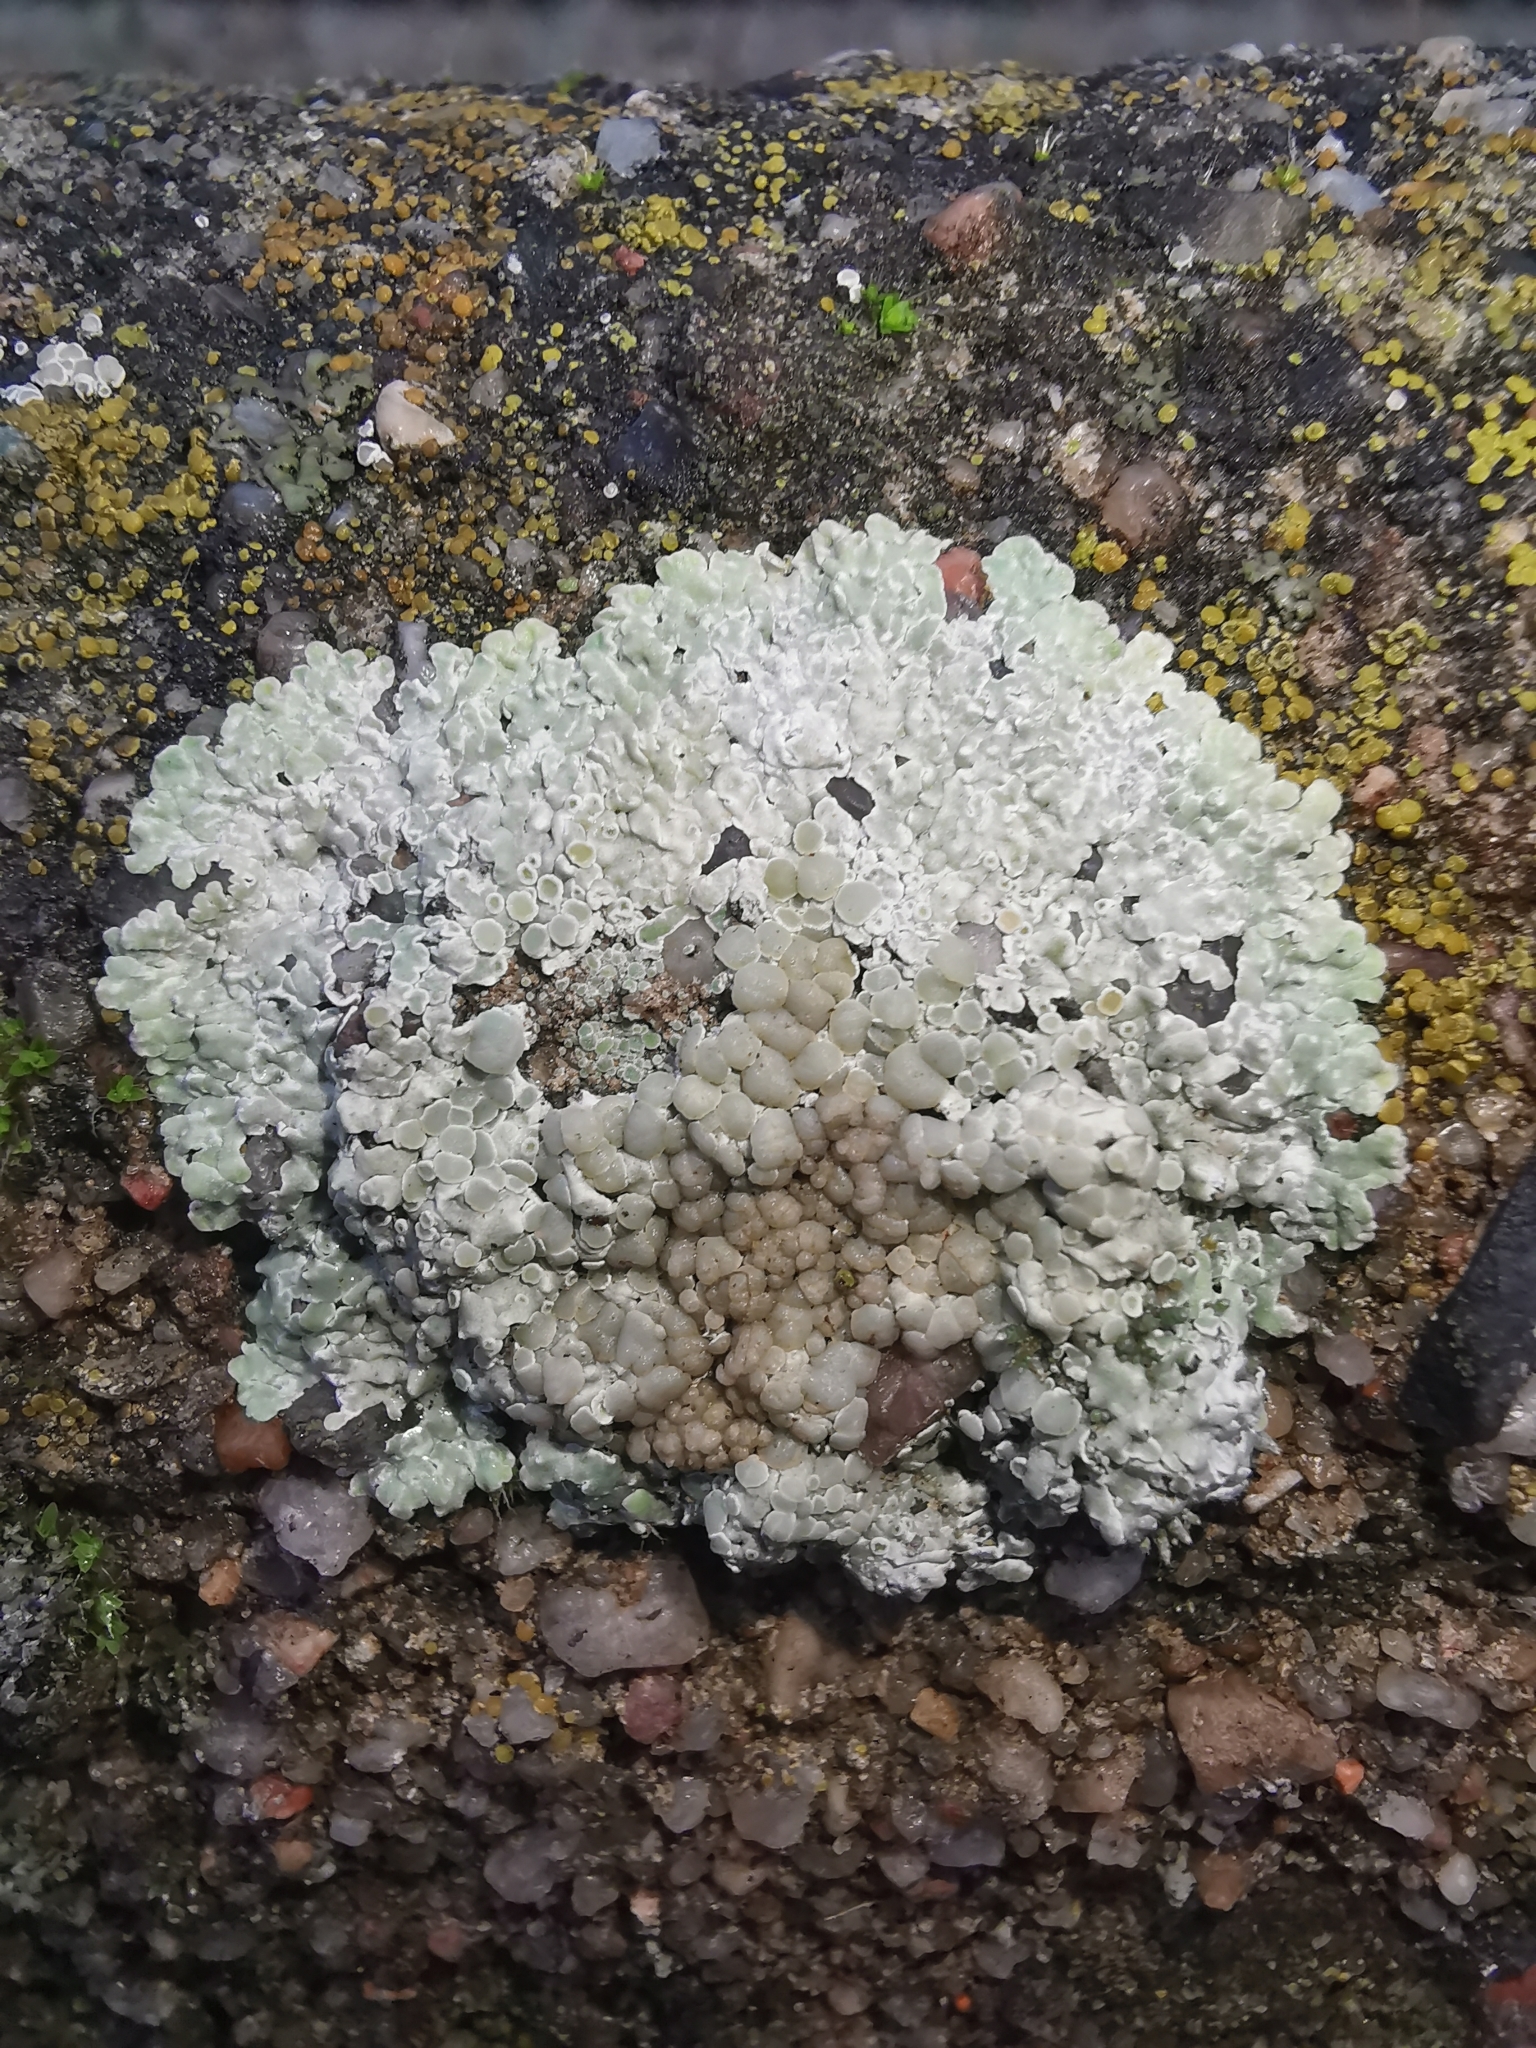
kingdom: Fungi
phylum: Ascomycota
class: Lecanoromycetes
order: Lecanorales
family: Lecanoraceae
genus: Protoparmeliopsis
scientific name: Protoparmeliopsis muralis
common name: Stonewall rim lichen
